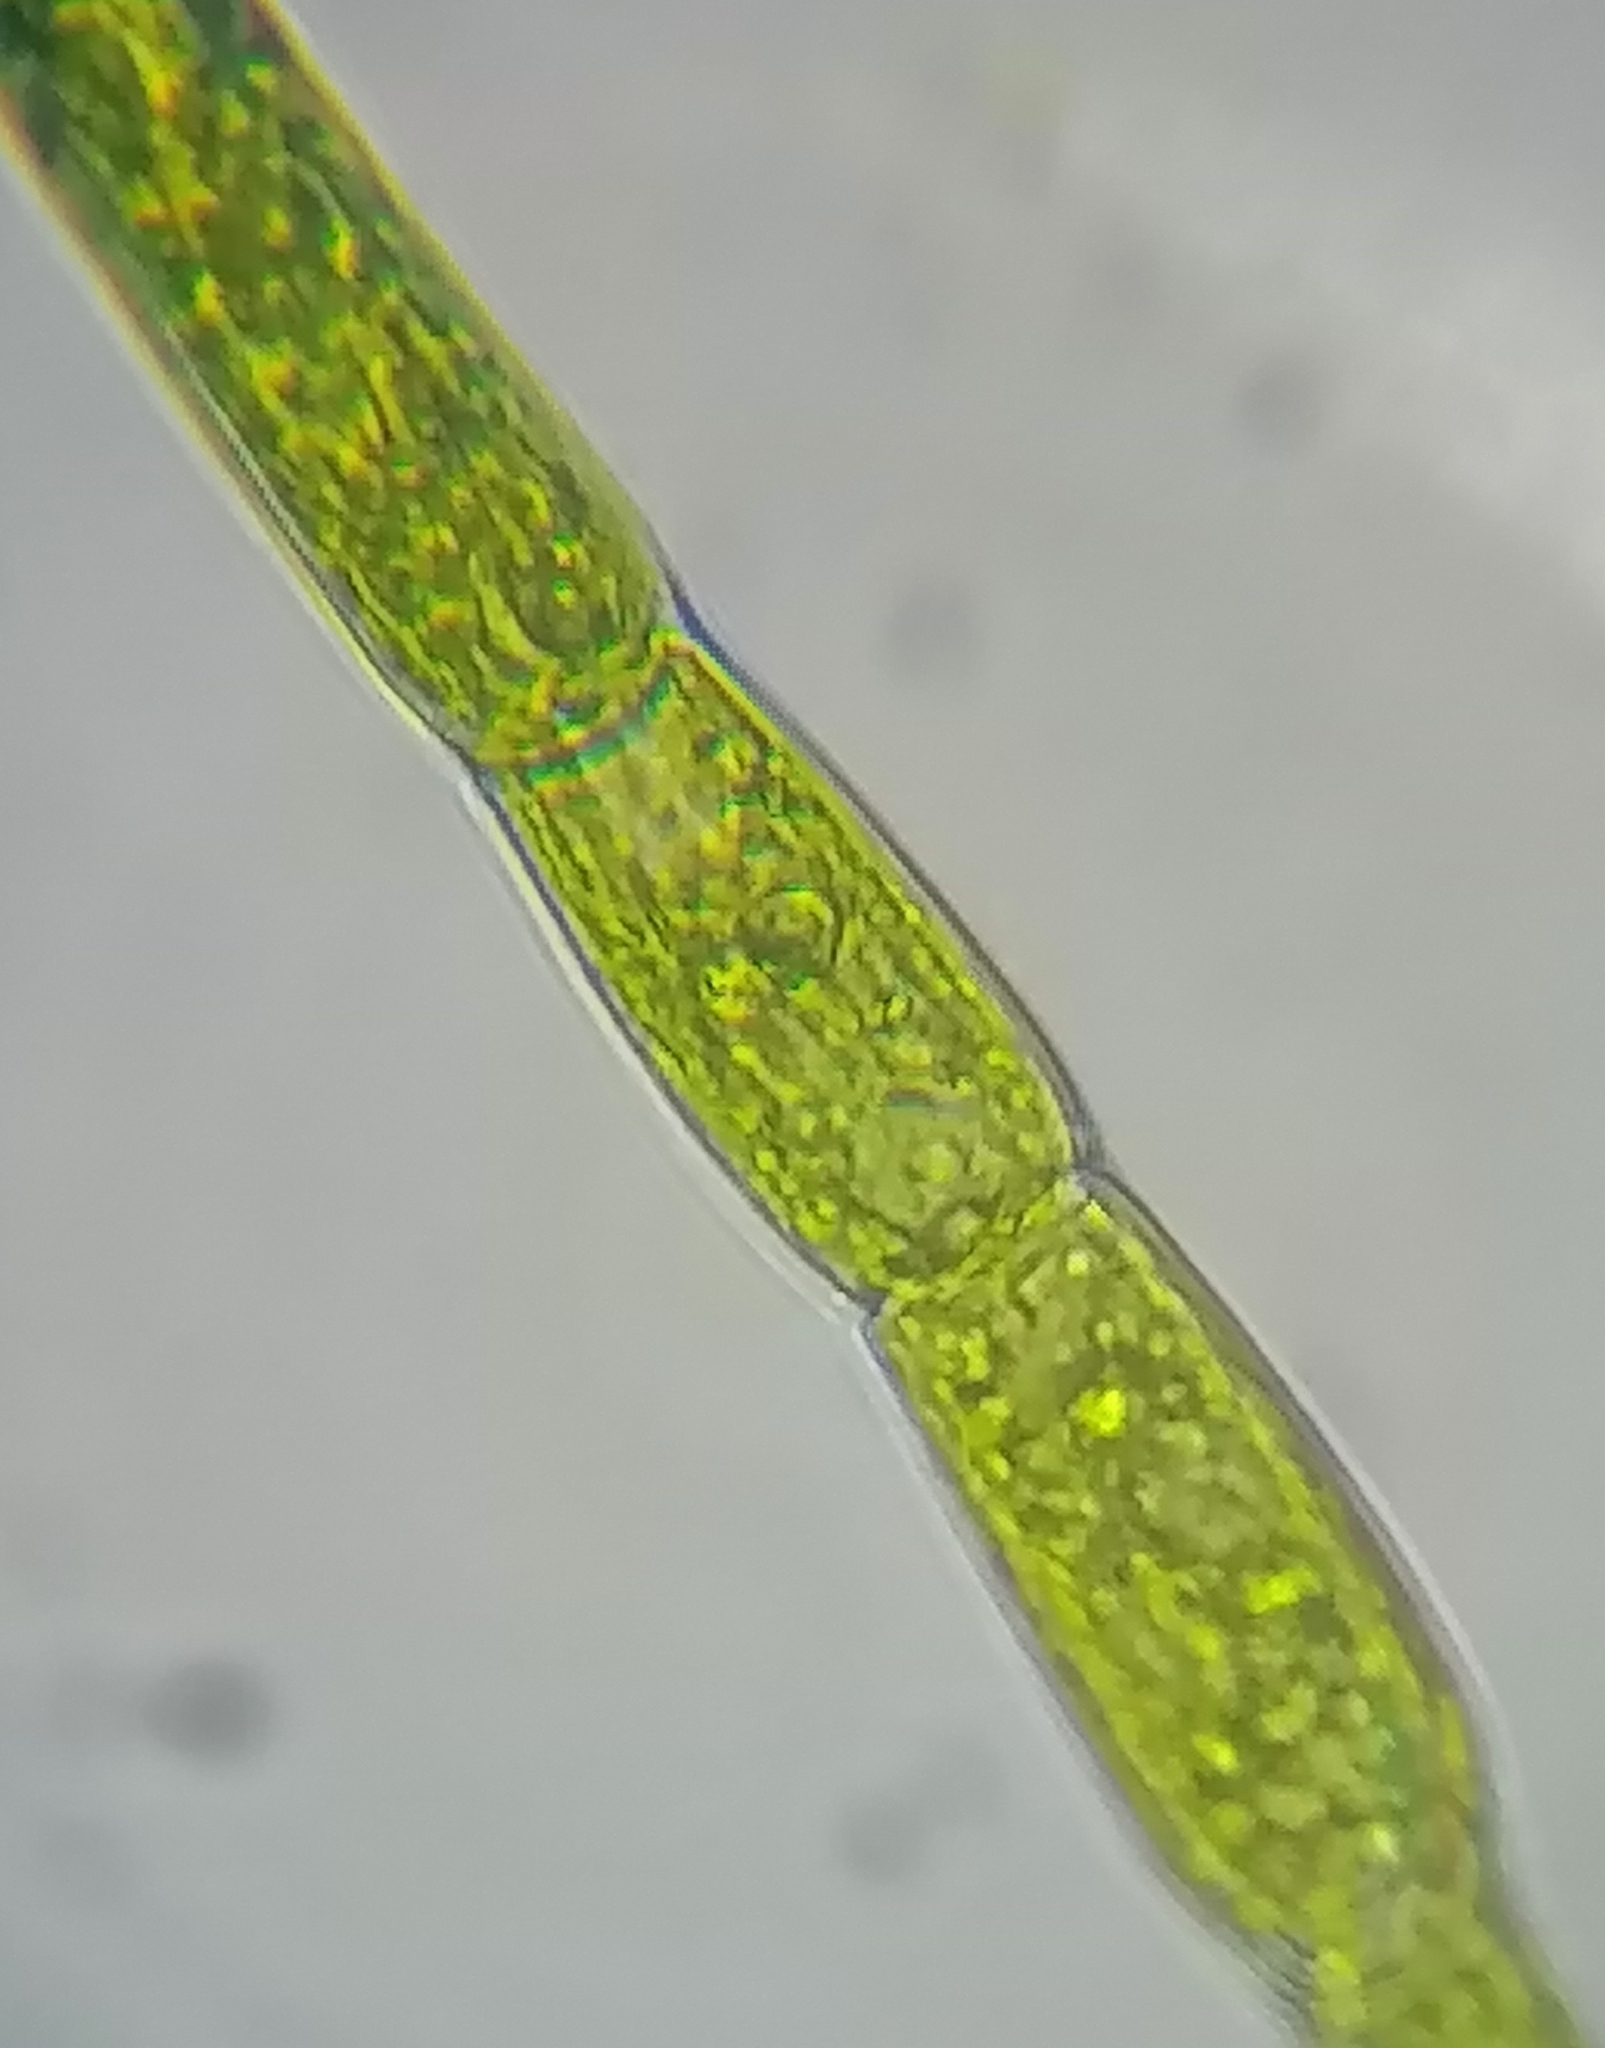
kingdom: Plantae
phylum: Chlorophyta
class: Chlorophyceae
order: Oedogoniales
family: Oedogoniaceae
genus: Oedogonium
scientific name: Oedogonium
